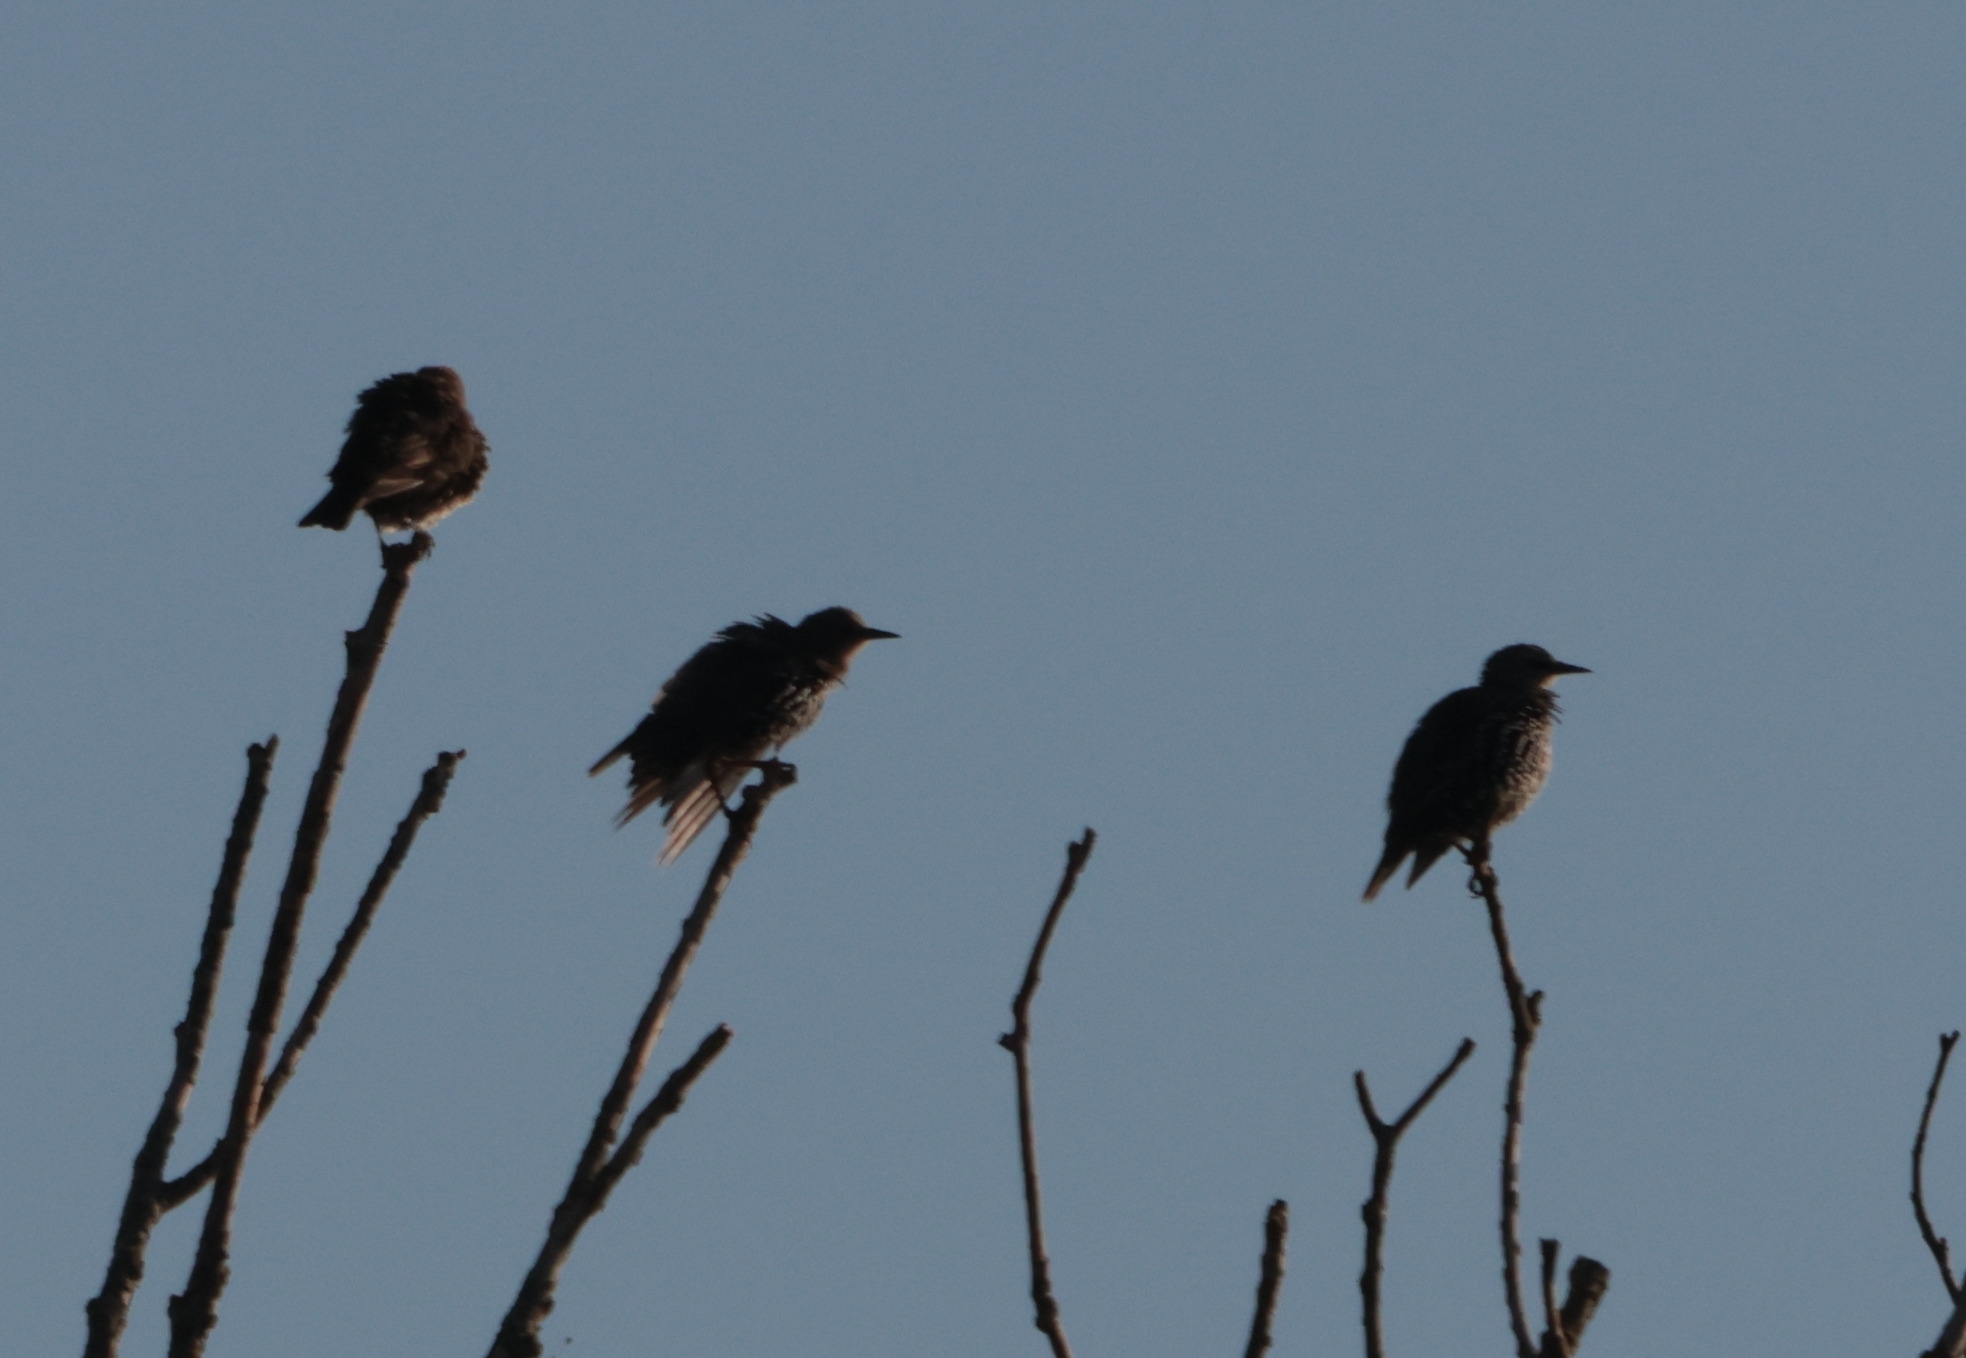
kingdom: Animalia
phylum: Chordata
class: Aves
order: Passeriformes
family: Sturnidae
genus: Sturnus
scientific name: Sturnus vulgaris
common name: Common starling
